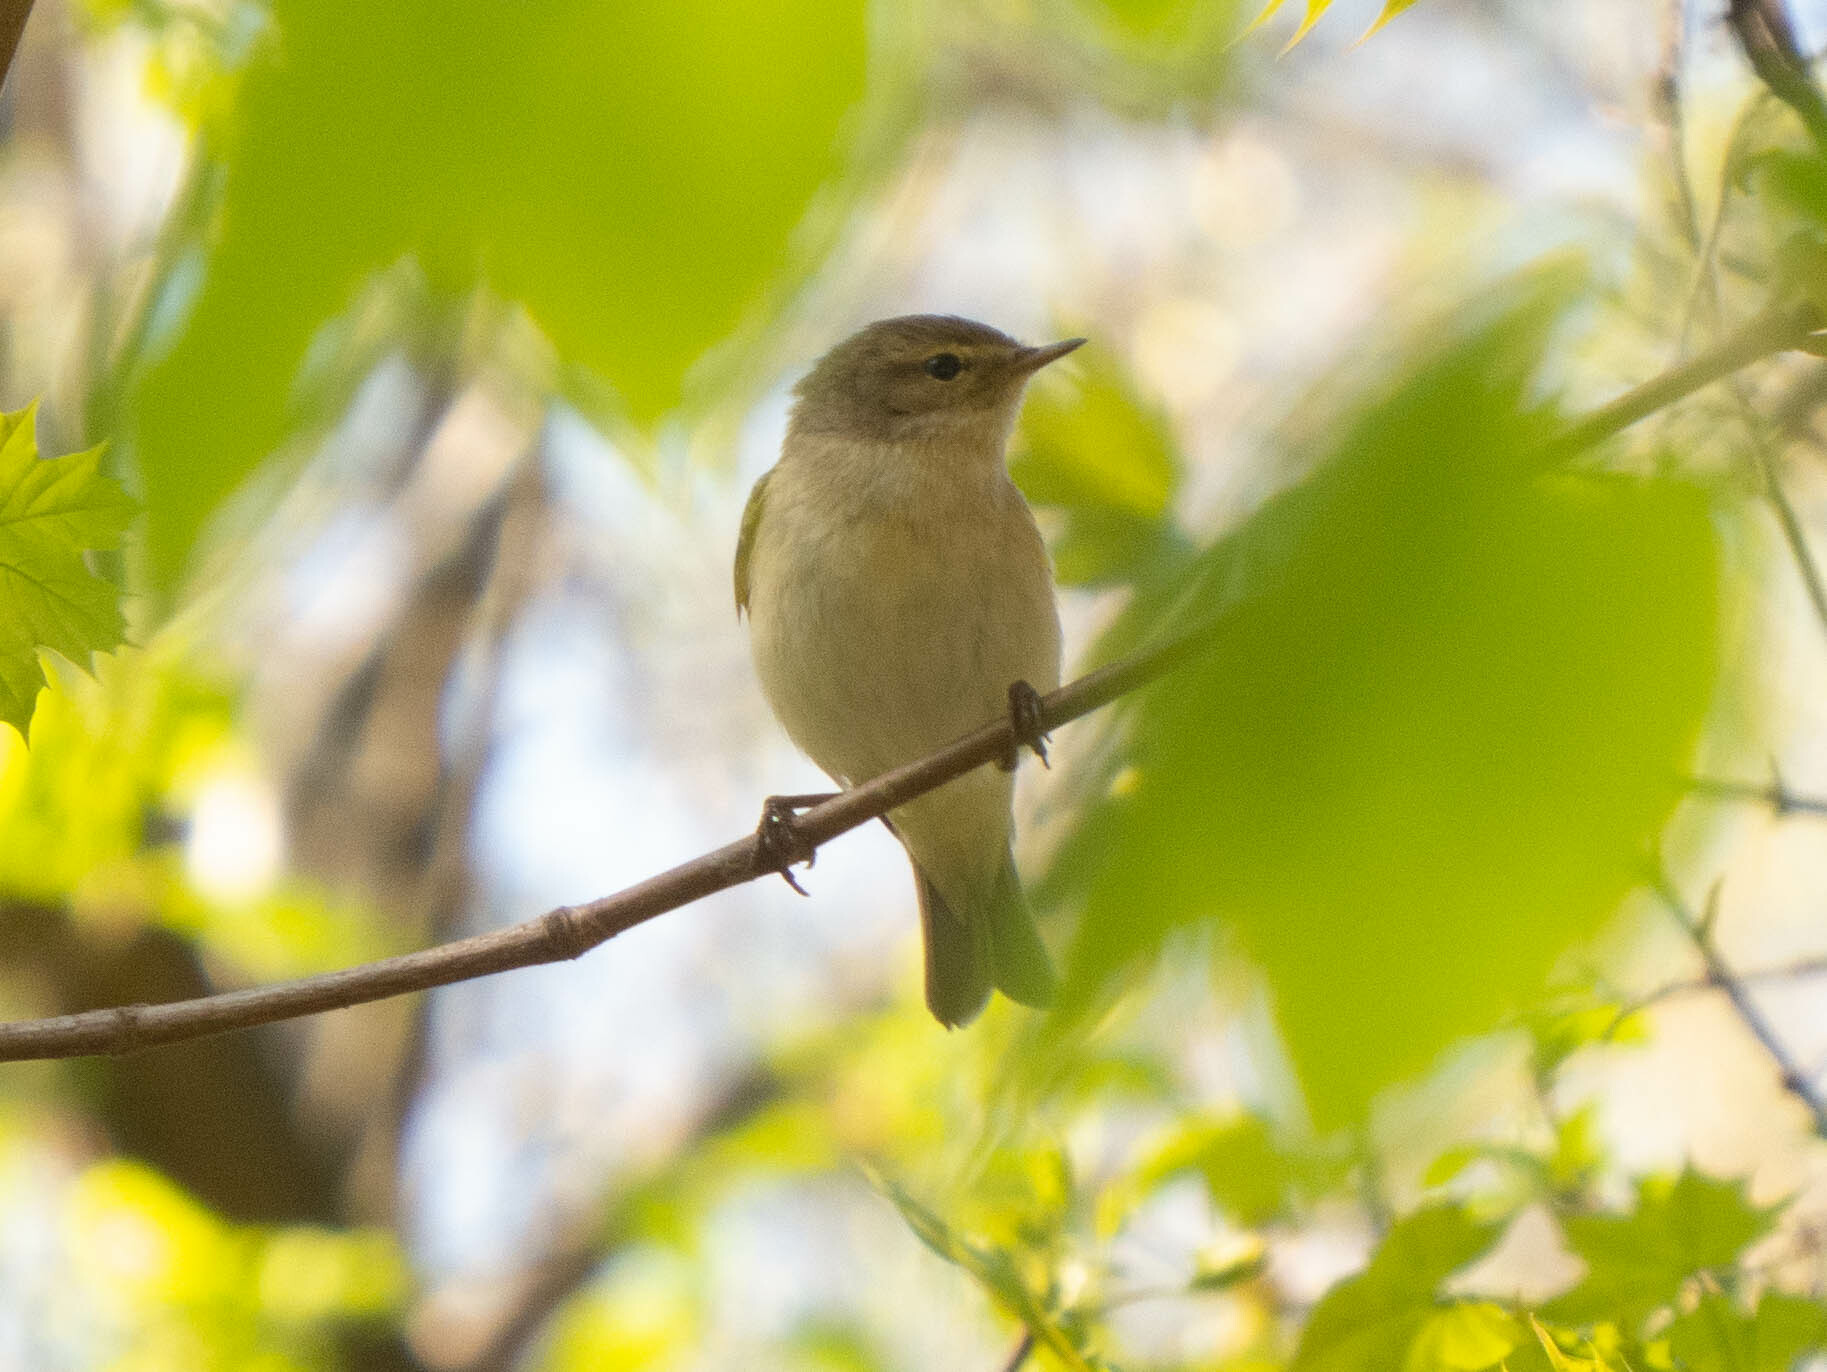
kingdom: Animalia
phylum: Chordata
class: Aves
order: Passeriformes
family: Phylloscopidae
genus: Phylloscopus
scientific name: Phylloscopus collybita
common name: Common chiffchaff
